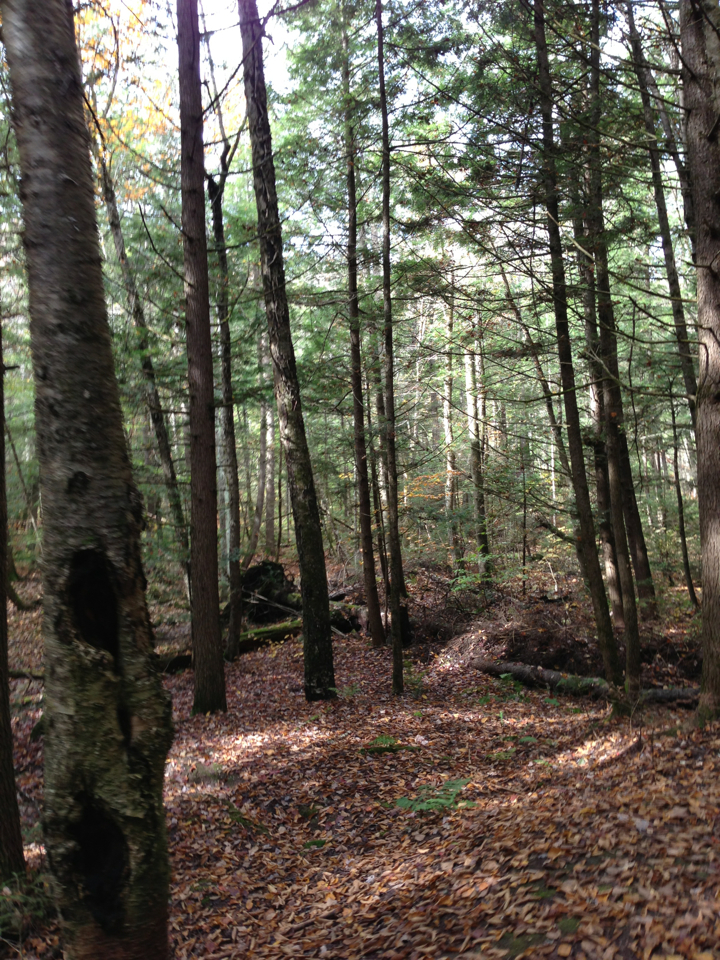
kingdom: Plantae
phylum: Tracheophyta
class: Pinopsida
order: Pinales
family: Pinaceae
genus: Tsuga
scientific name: Tsuga canadensis
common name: Eastern hemlock
